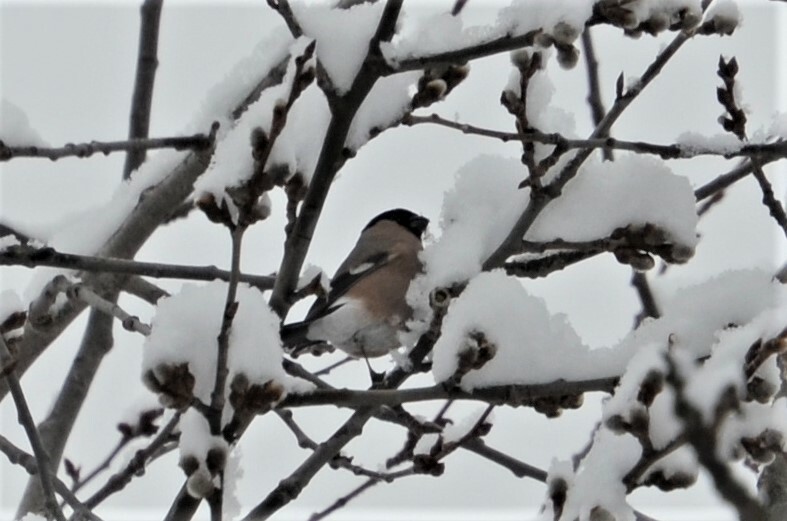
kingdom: Animalia
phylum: Chordata
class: Aves
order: Passeriformes
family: Fringillidae
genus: Pyrrhula
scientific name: Pyrrhula pyrrhula
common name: Eurasian bullfinch
